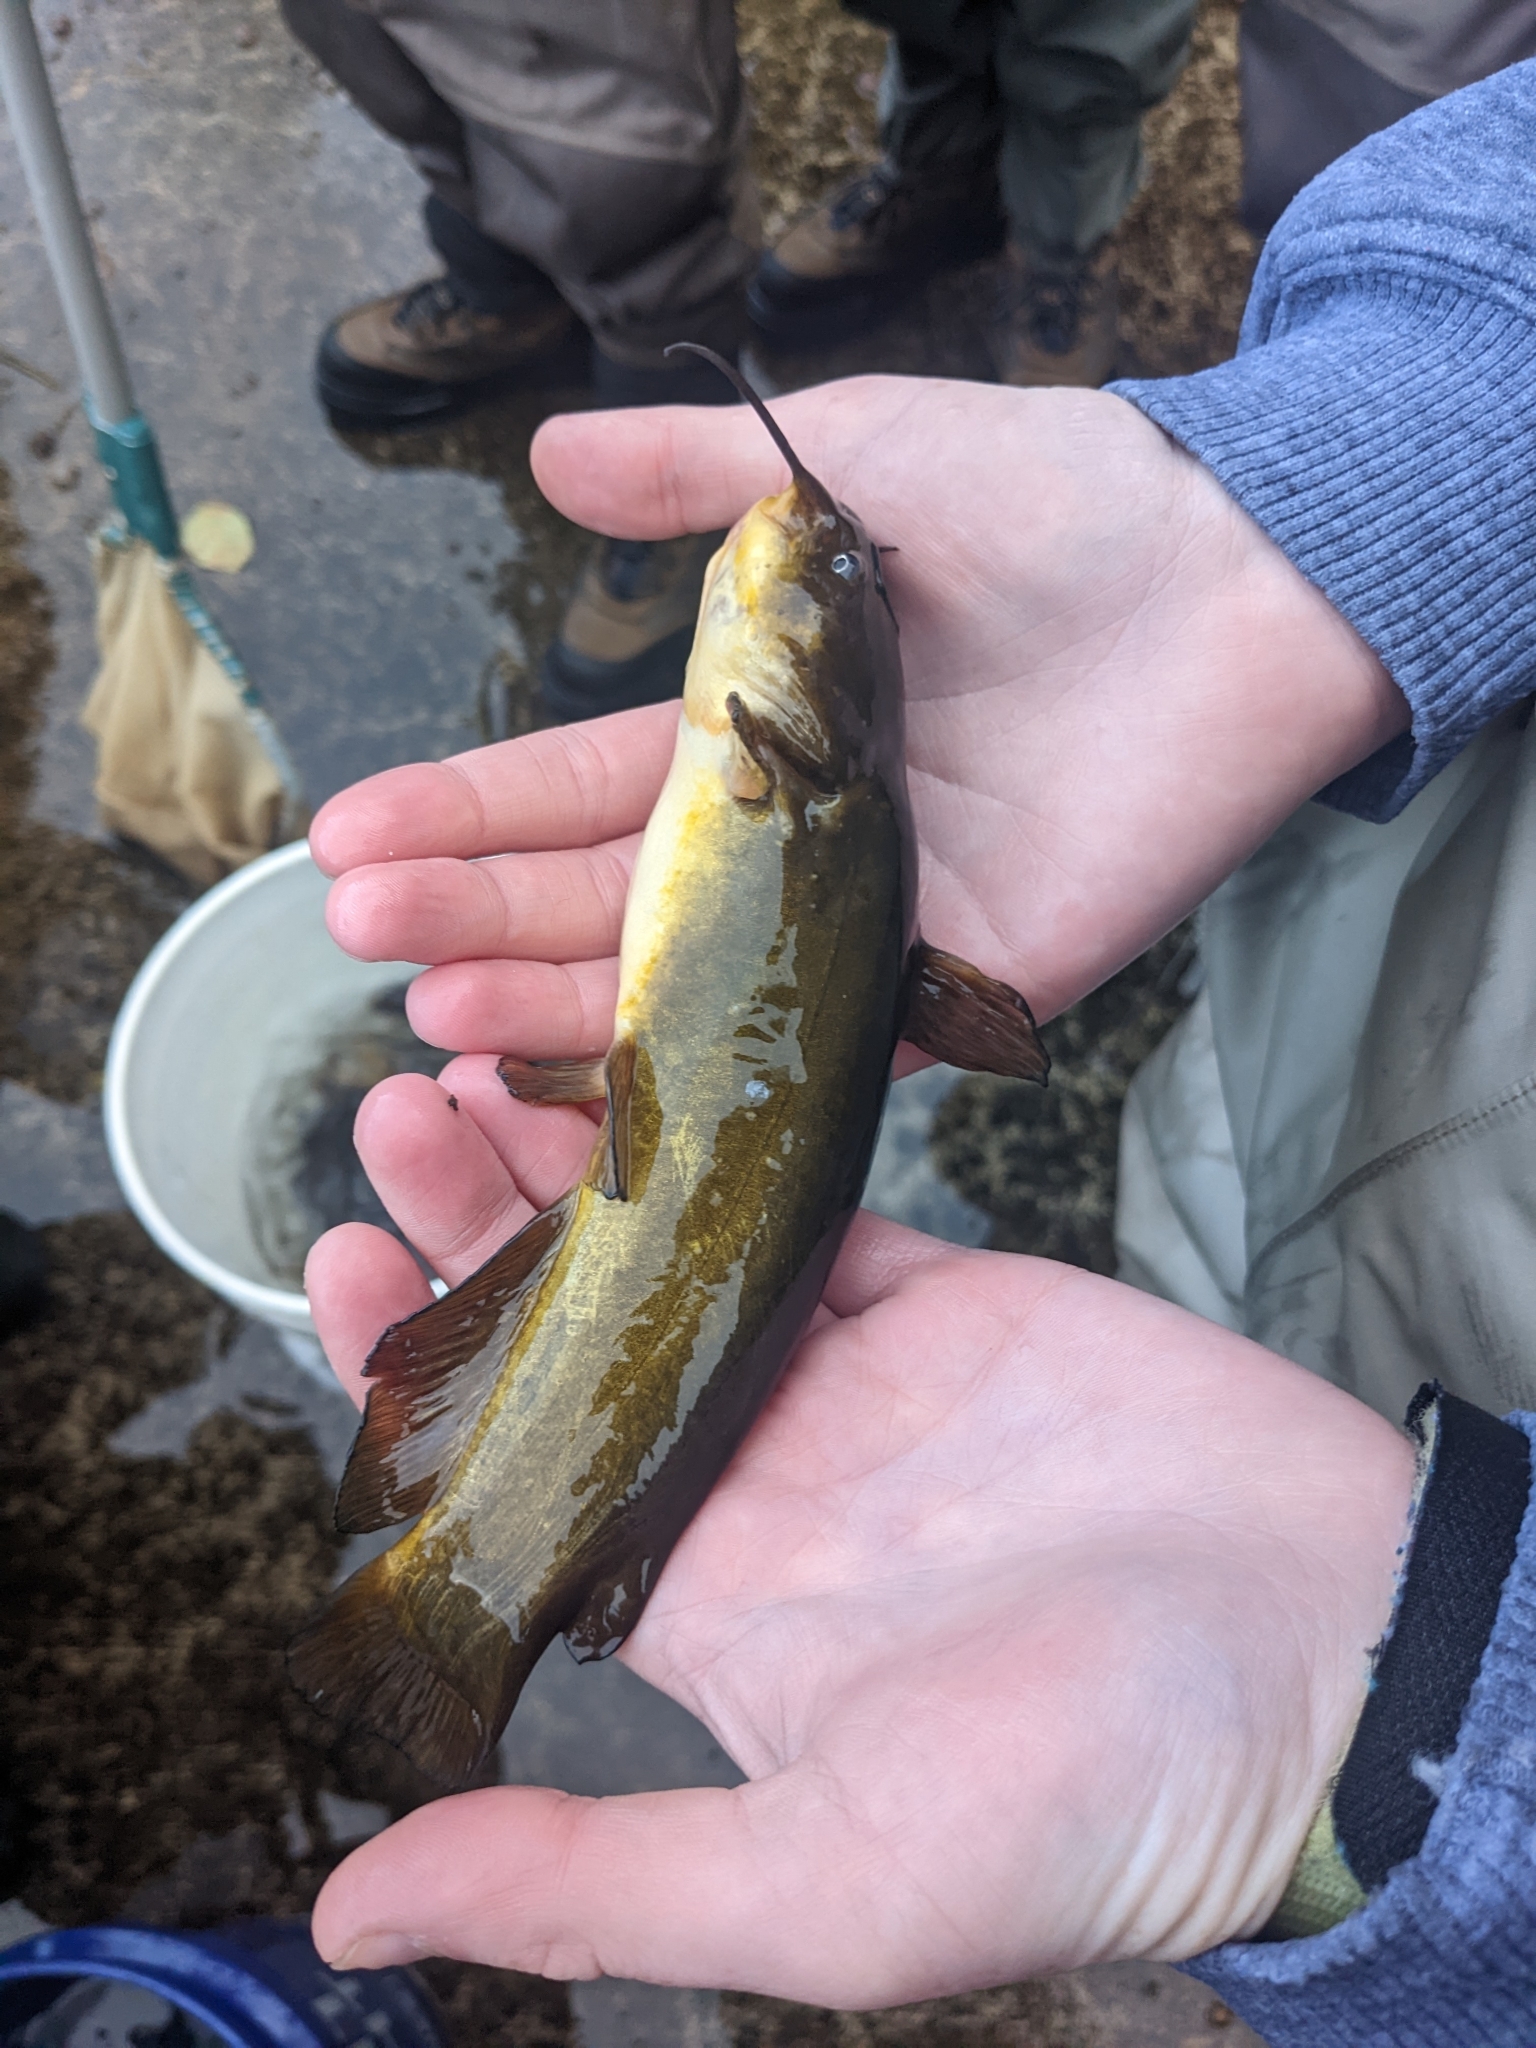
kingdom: Animalia
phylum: Chordata
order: Siluriformes
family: Ictaluridae
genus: Ameiurus
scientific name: Ameiurus natalis
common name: Yellow bullhead
